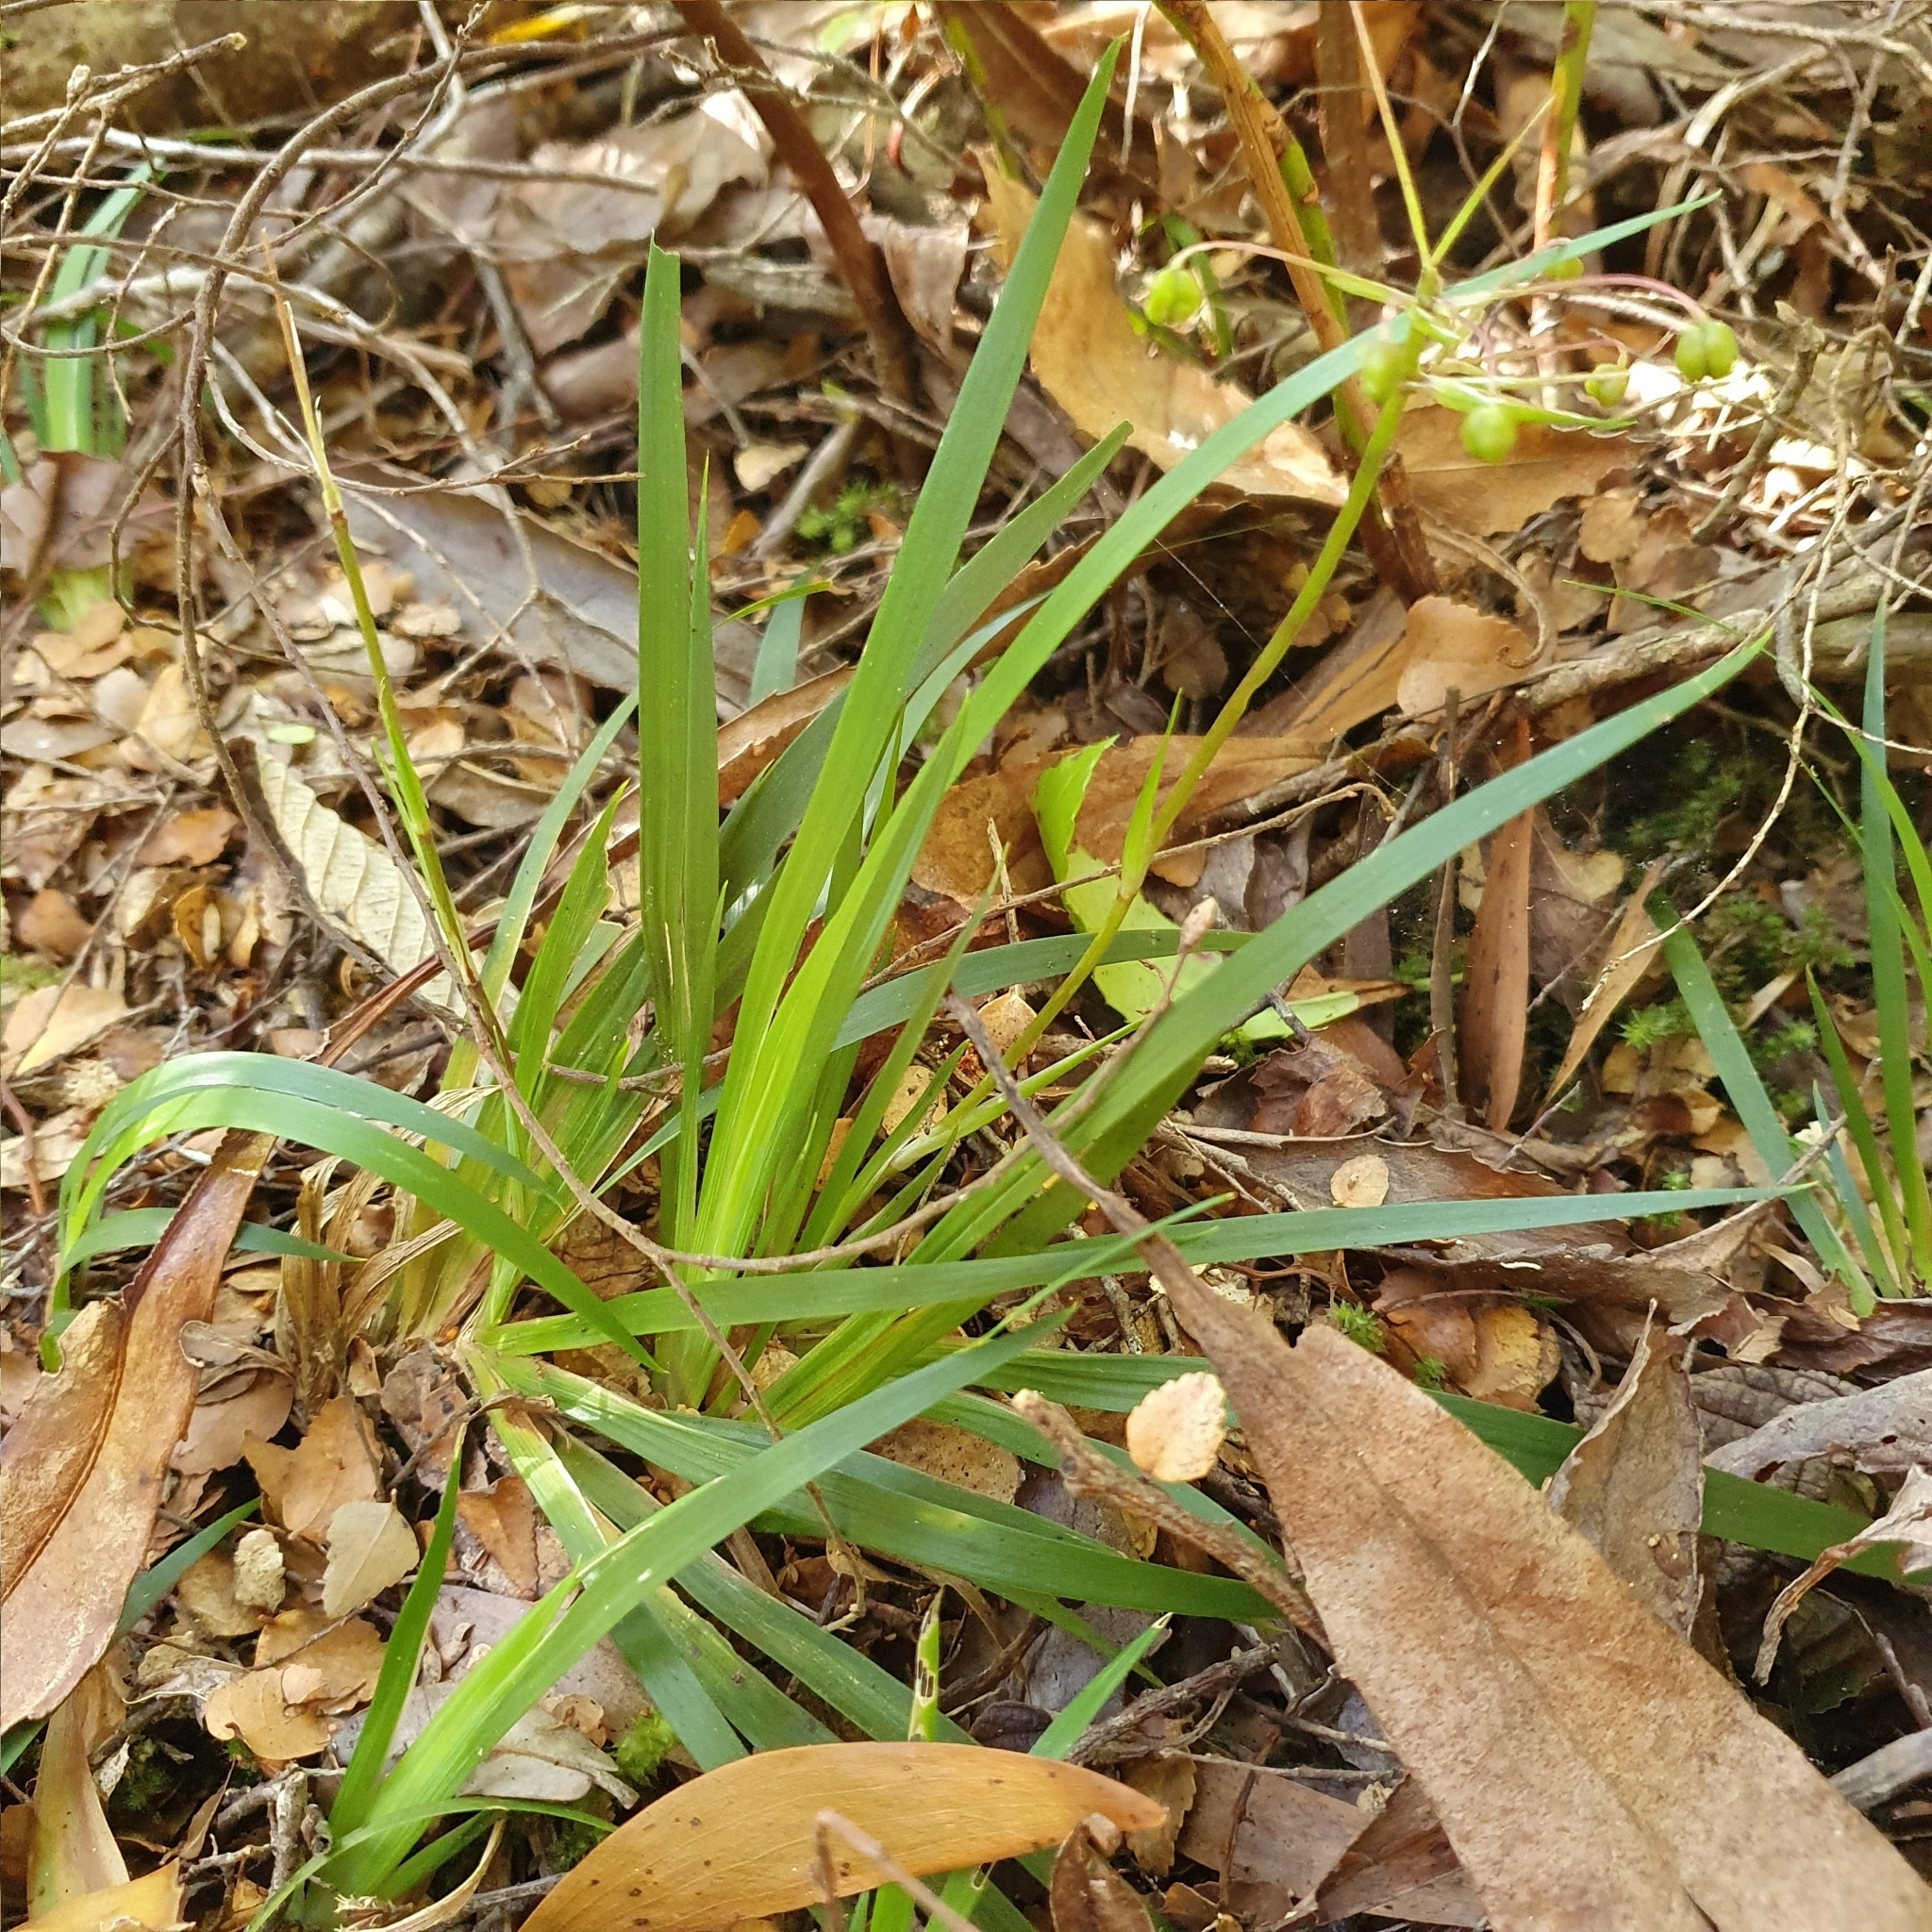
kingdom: Plantae
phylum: Tracheophyta
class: Liliopsida
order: Asparagales
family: Iridaceae
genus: Libertia
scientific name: Libertia pulchella
